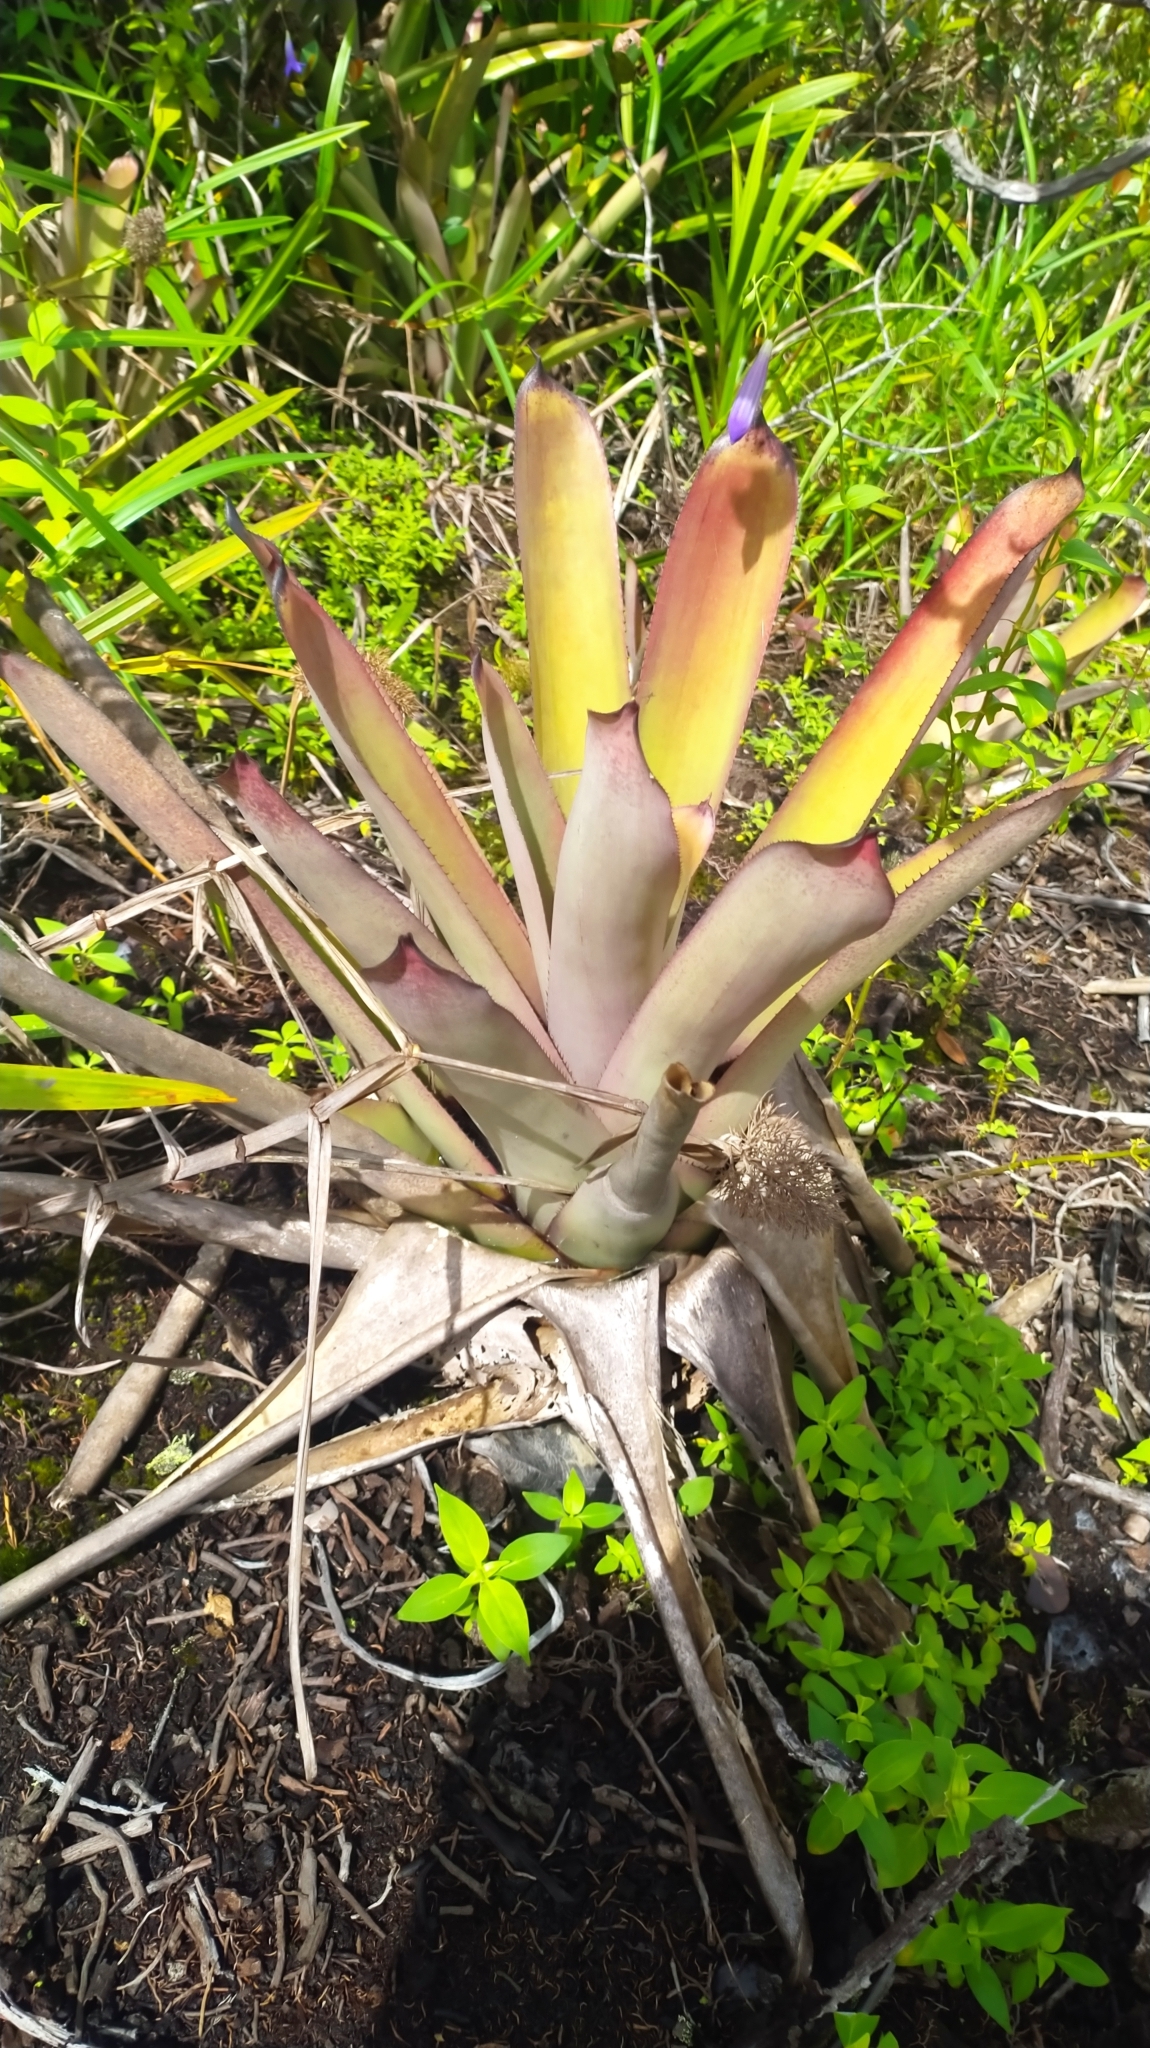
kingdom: Plantae
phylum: Tracheophyta
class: Liliopsida
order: Poales
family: Bromeliaceae
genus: Aechmea
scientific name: Aechmea aquilega
